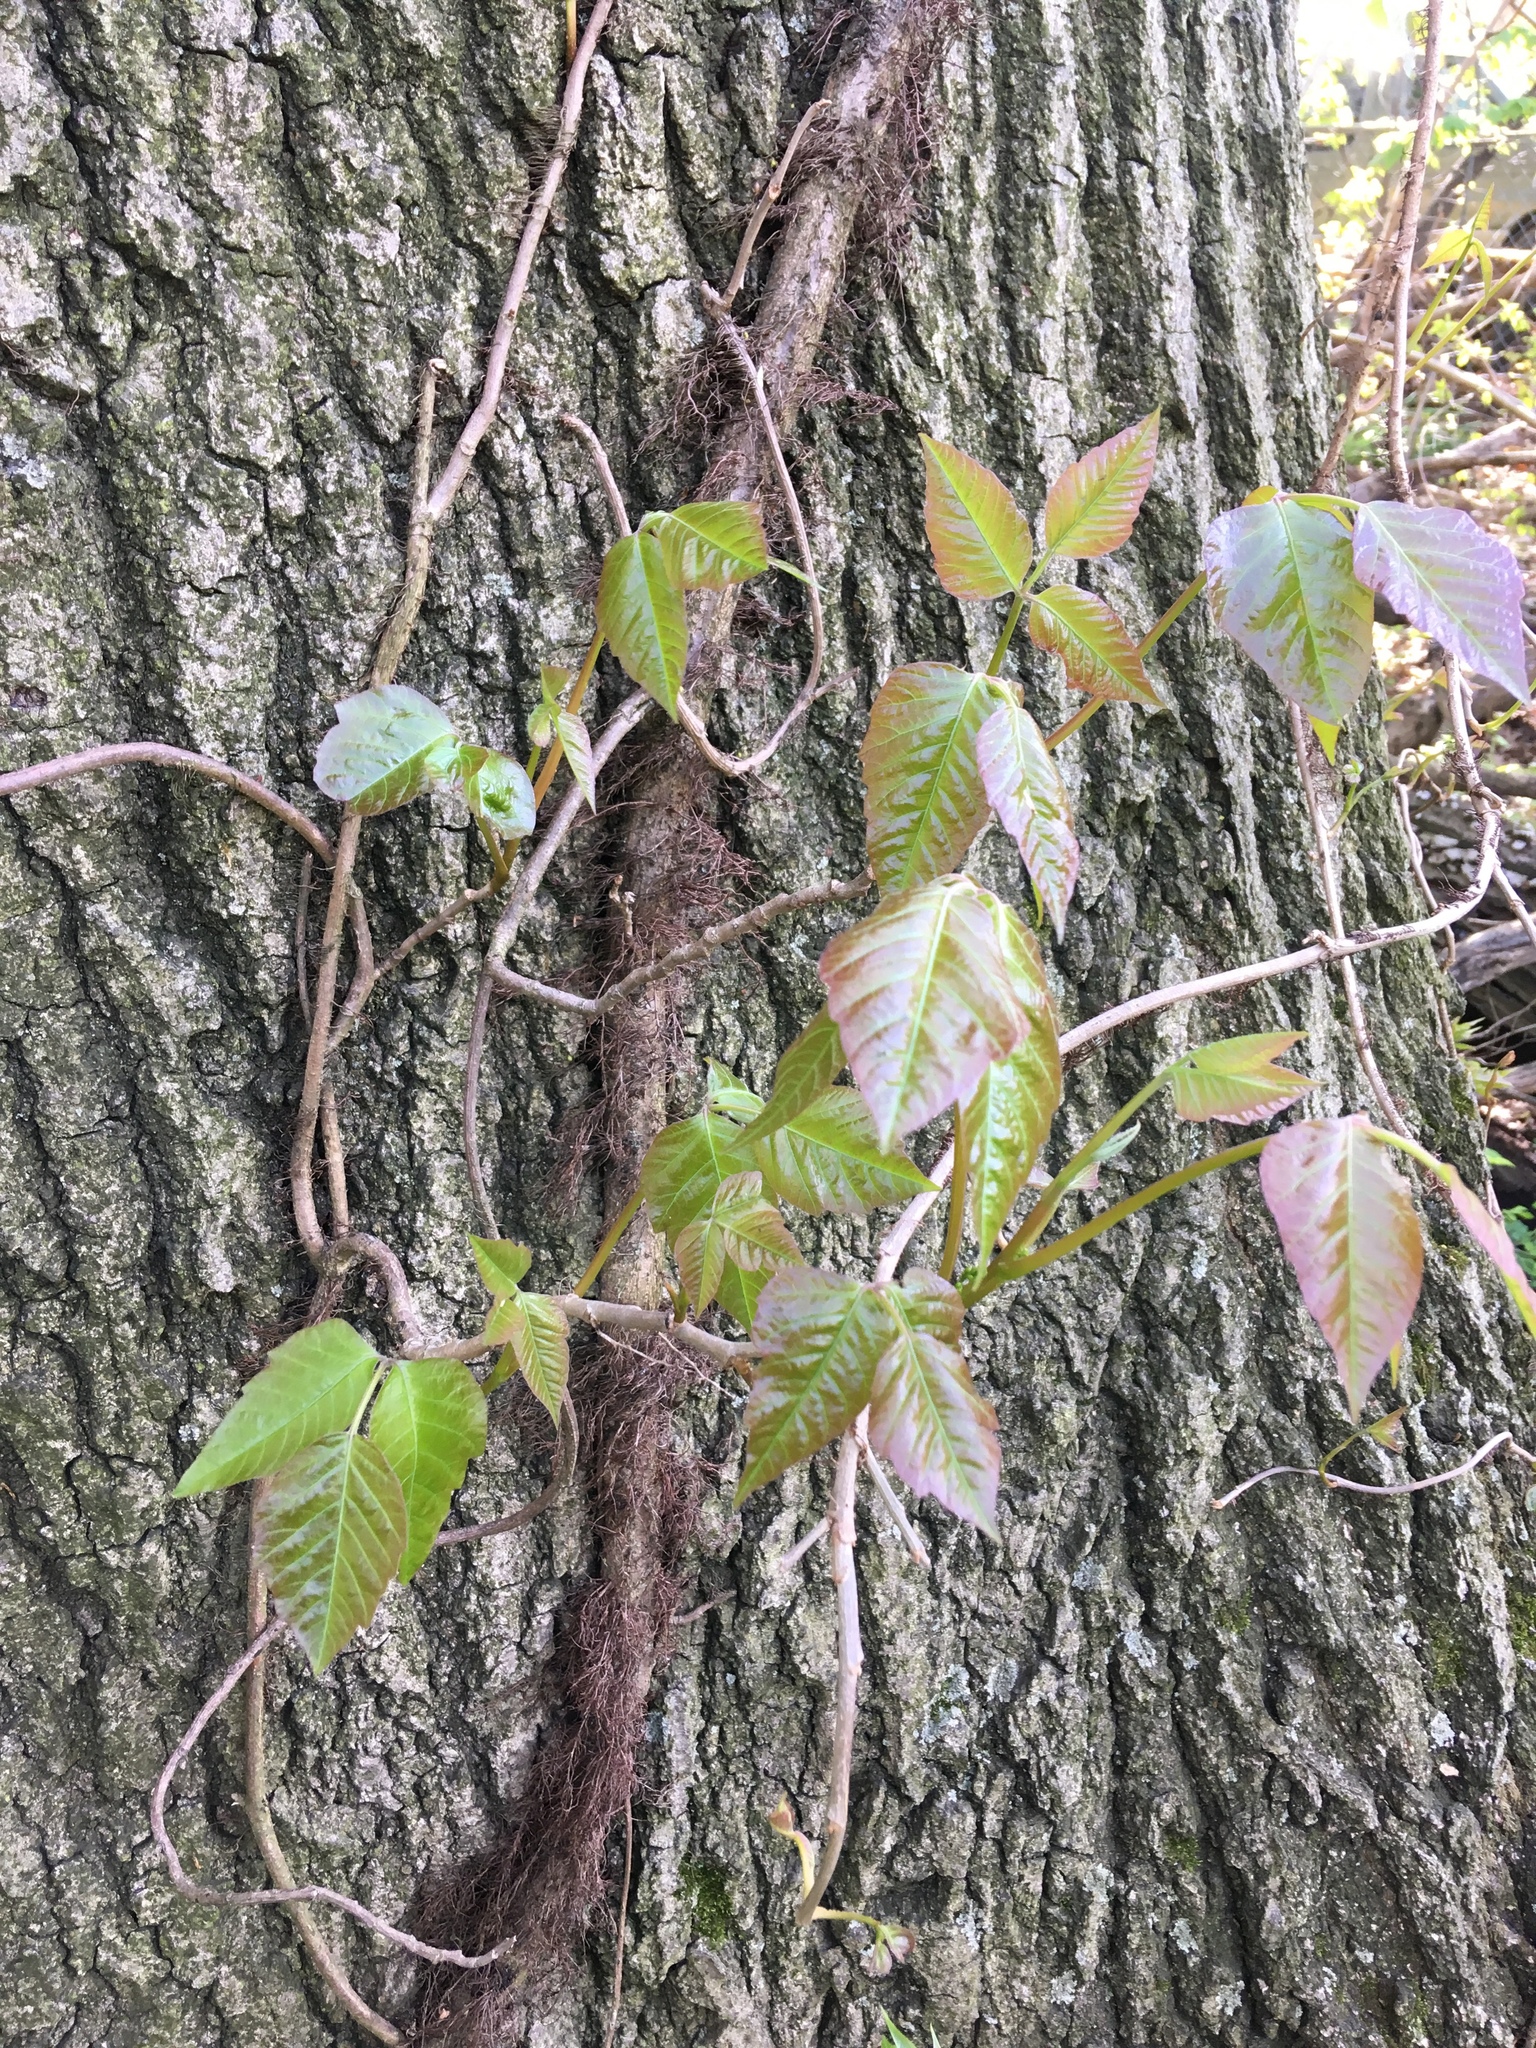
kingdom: Plantae
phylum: Tracheophyta
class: Magnoliopsida
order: Sapindales
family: Anacardiaceae
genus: Toxicodendron
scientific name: Toxicodendron radicans
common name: Poison ivy
